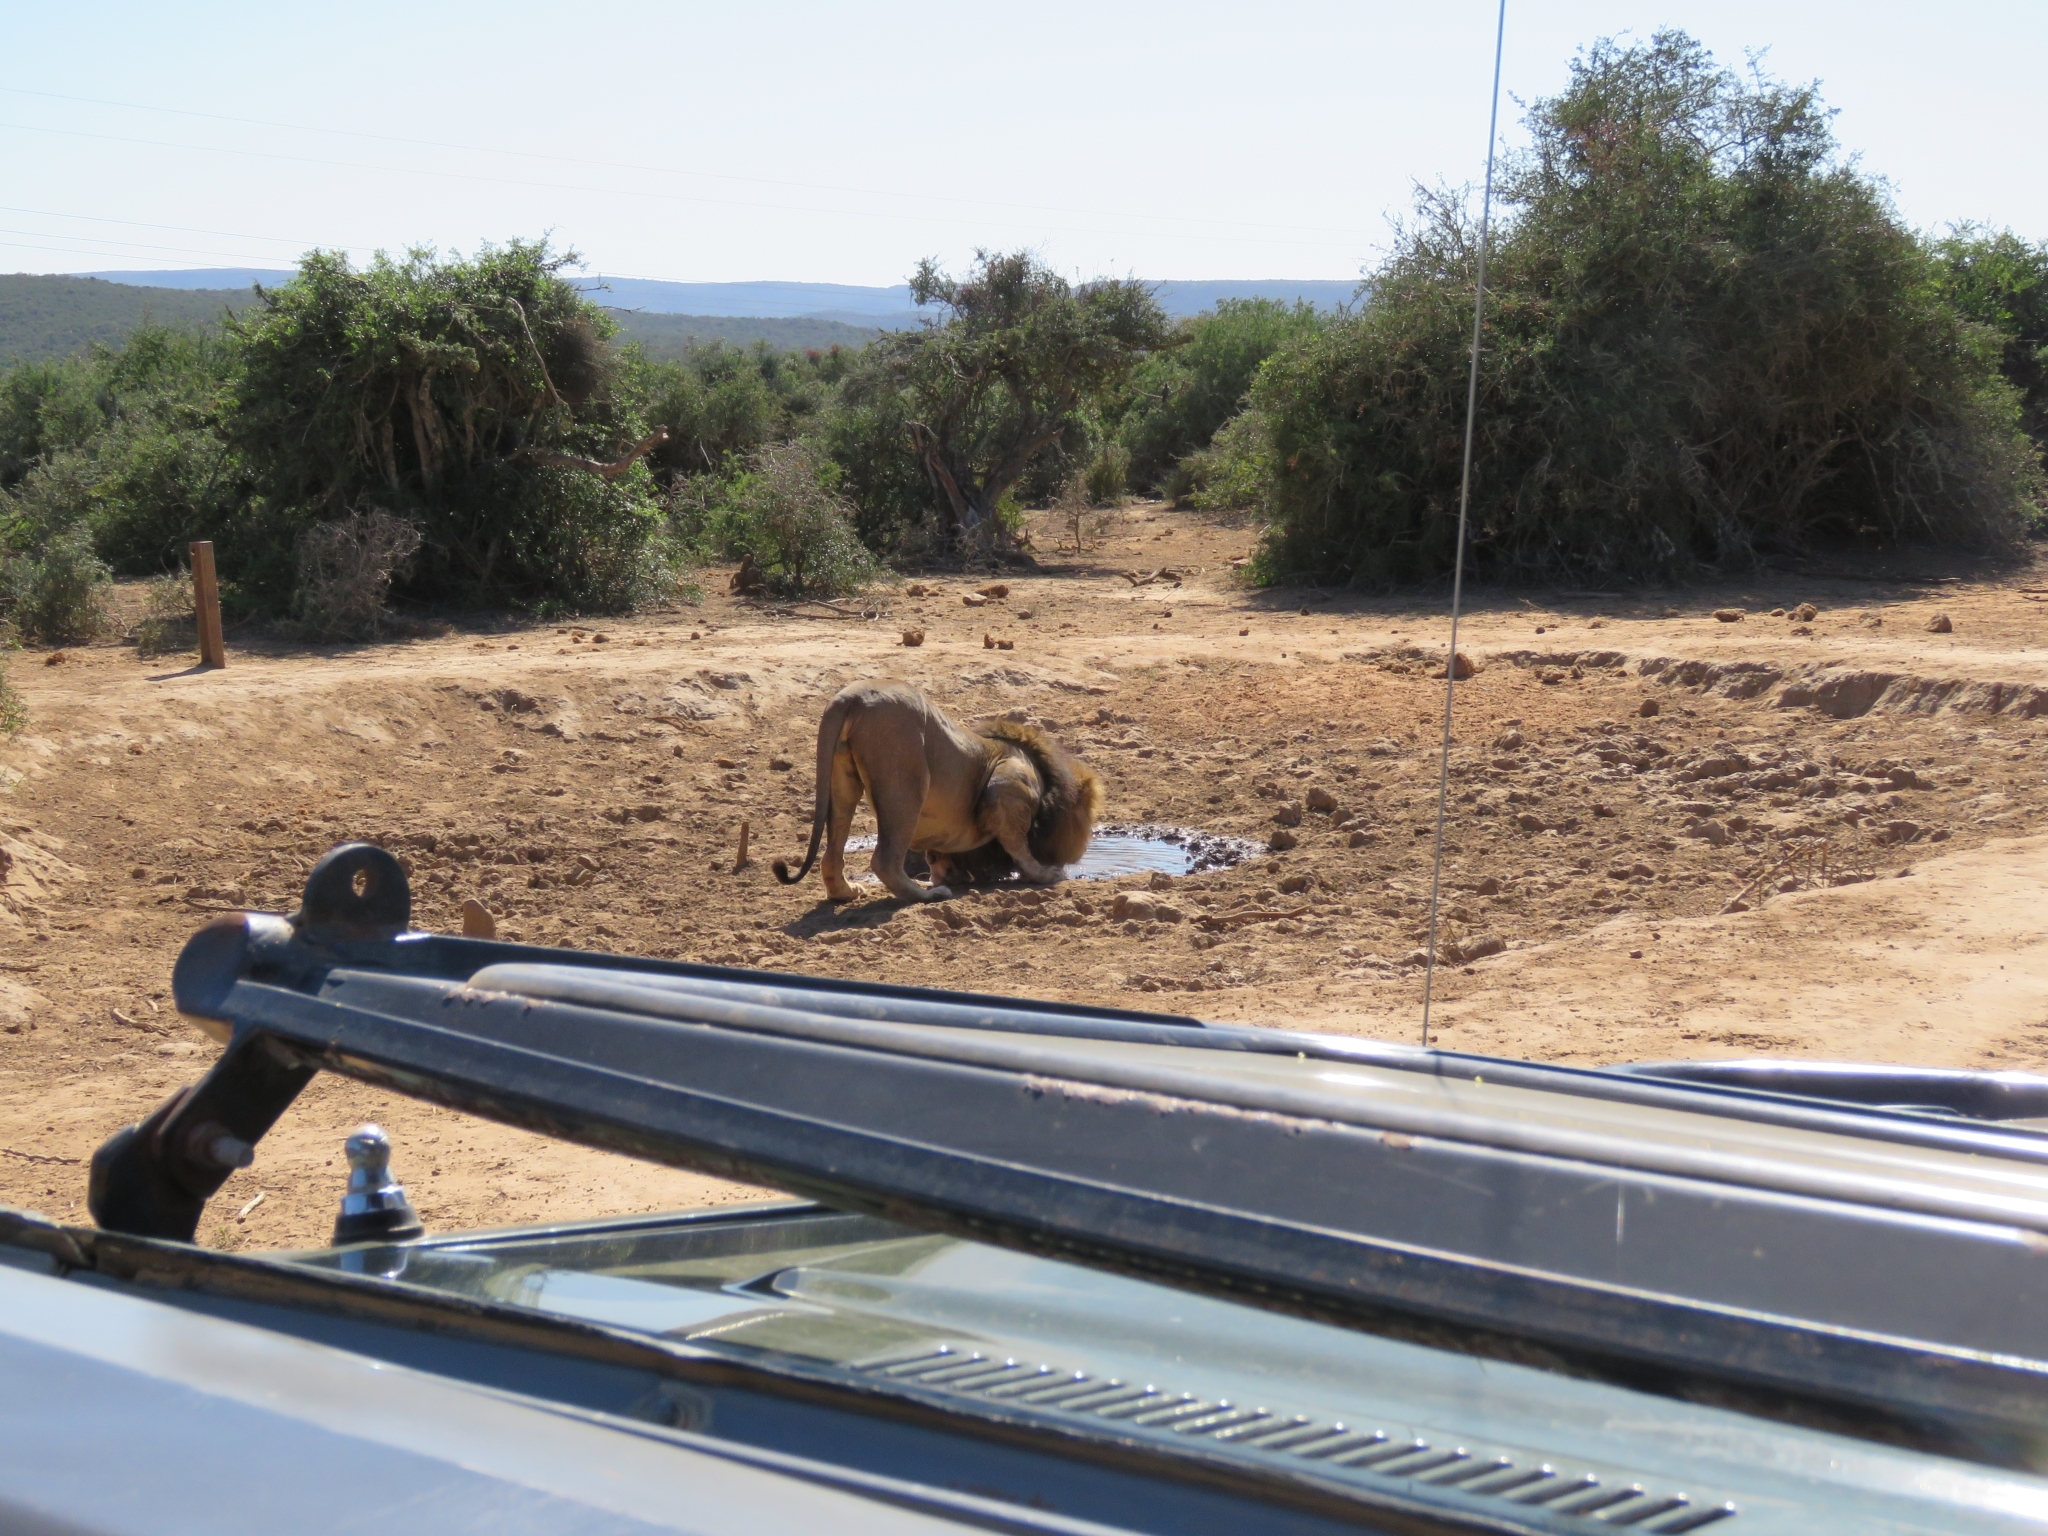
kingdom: Animalia
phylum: Chordata
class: Mammalia
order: Carnivora
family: Felidae
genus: Panthera
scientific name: Panthera leo
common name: Lion
